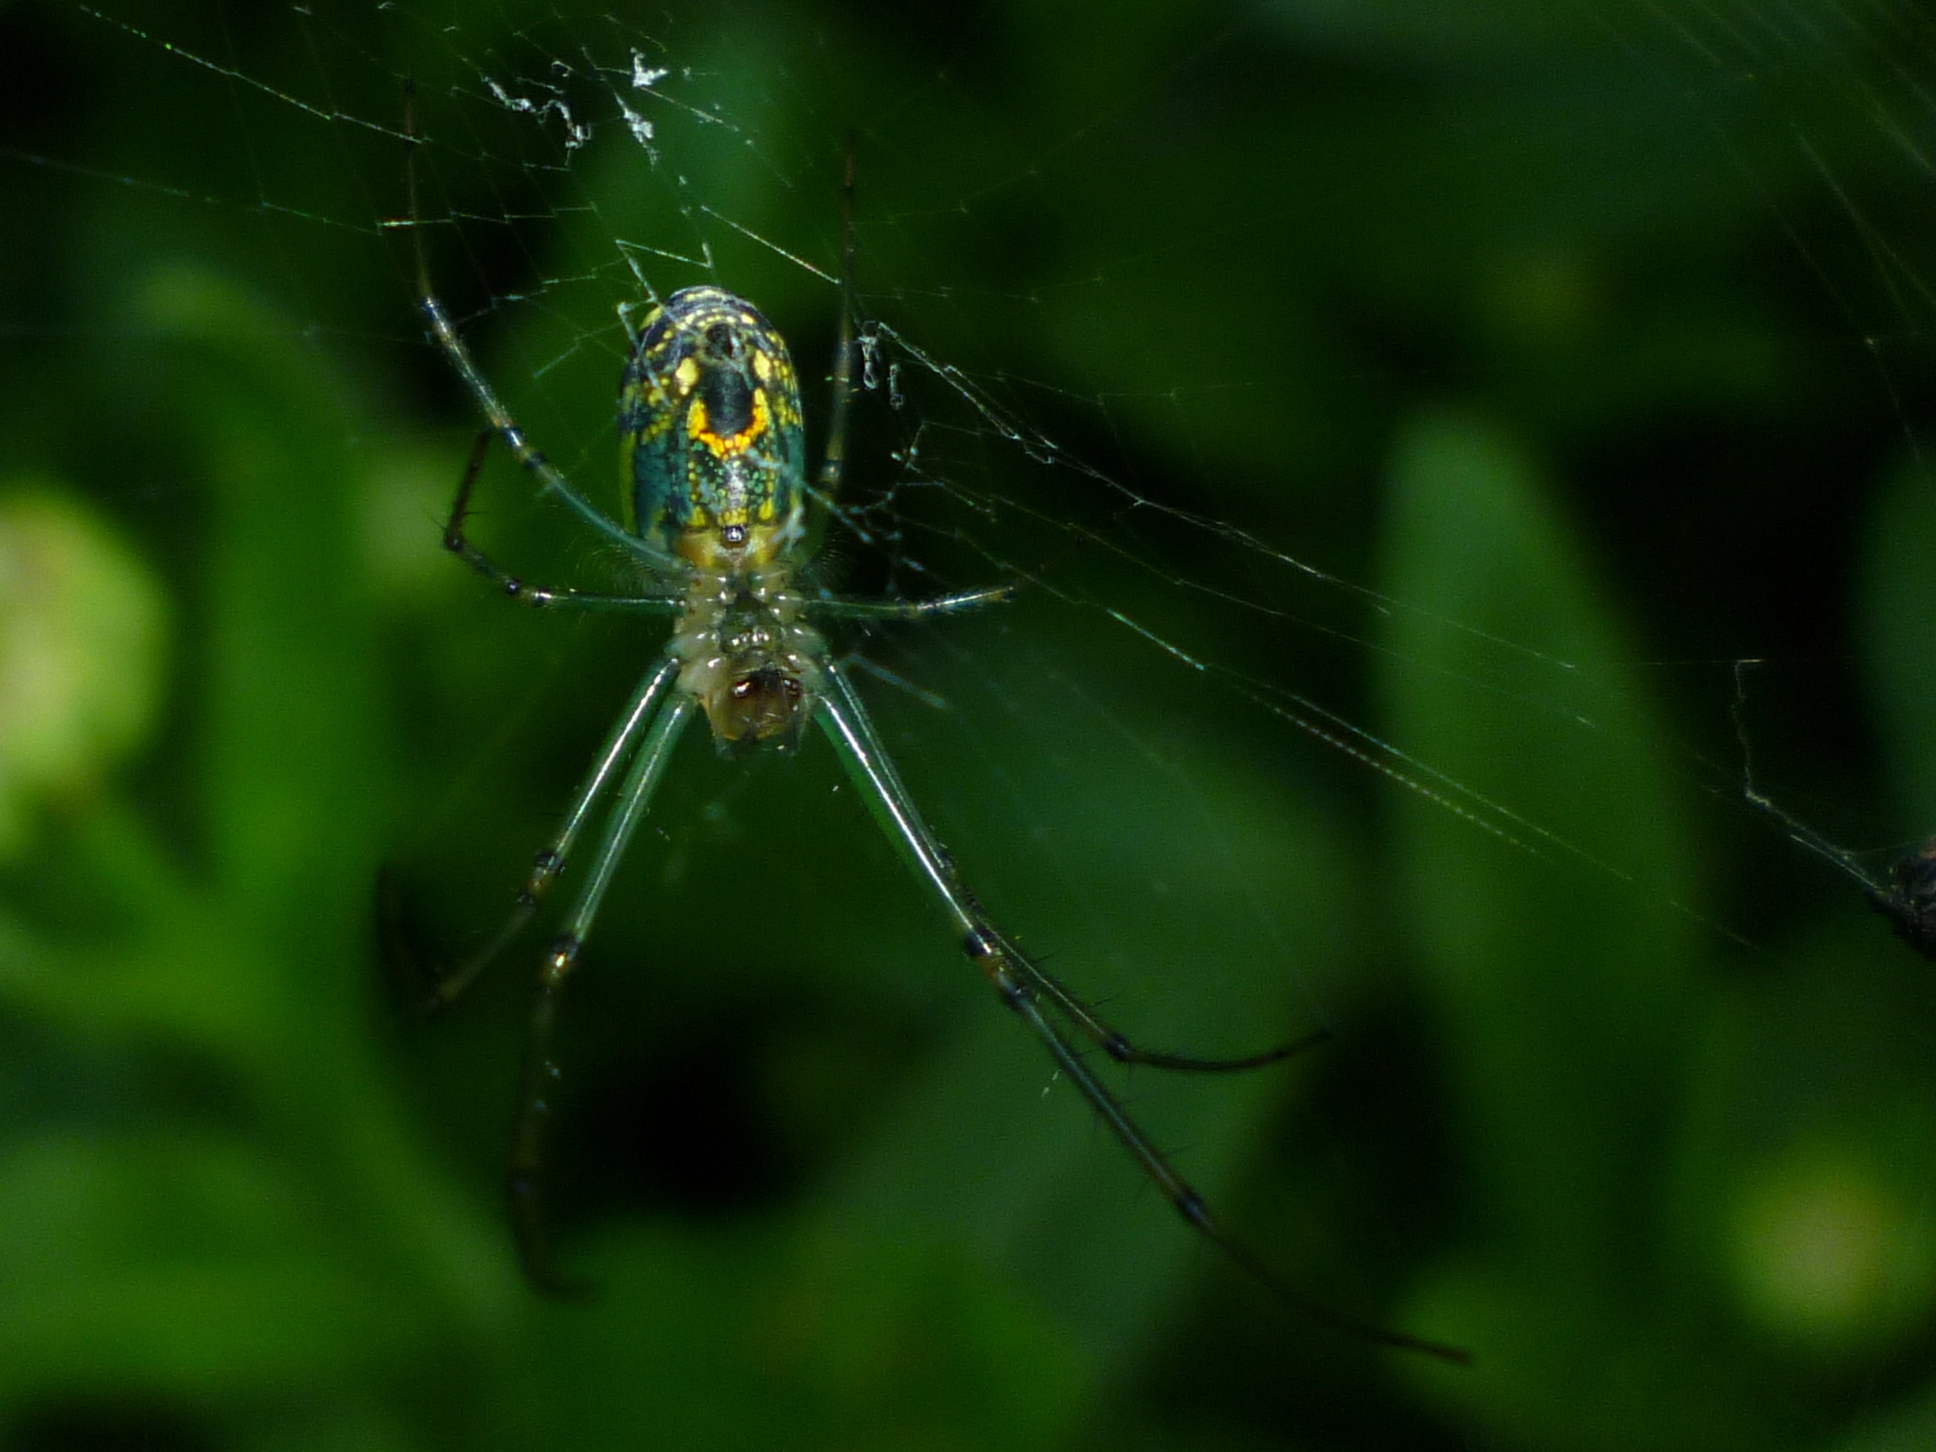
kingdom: Animalia
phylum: Arthropoda
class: Arachnida
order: Araneae
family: Tetragnathidae
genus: Leucauge
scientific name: Leucauge venusta
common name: Longjawed orb weavers
